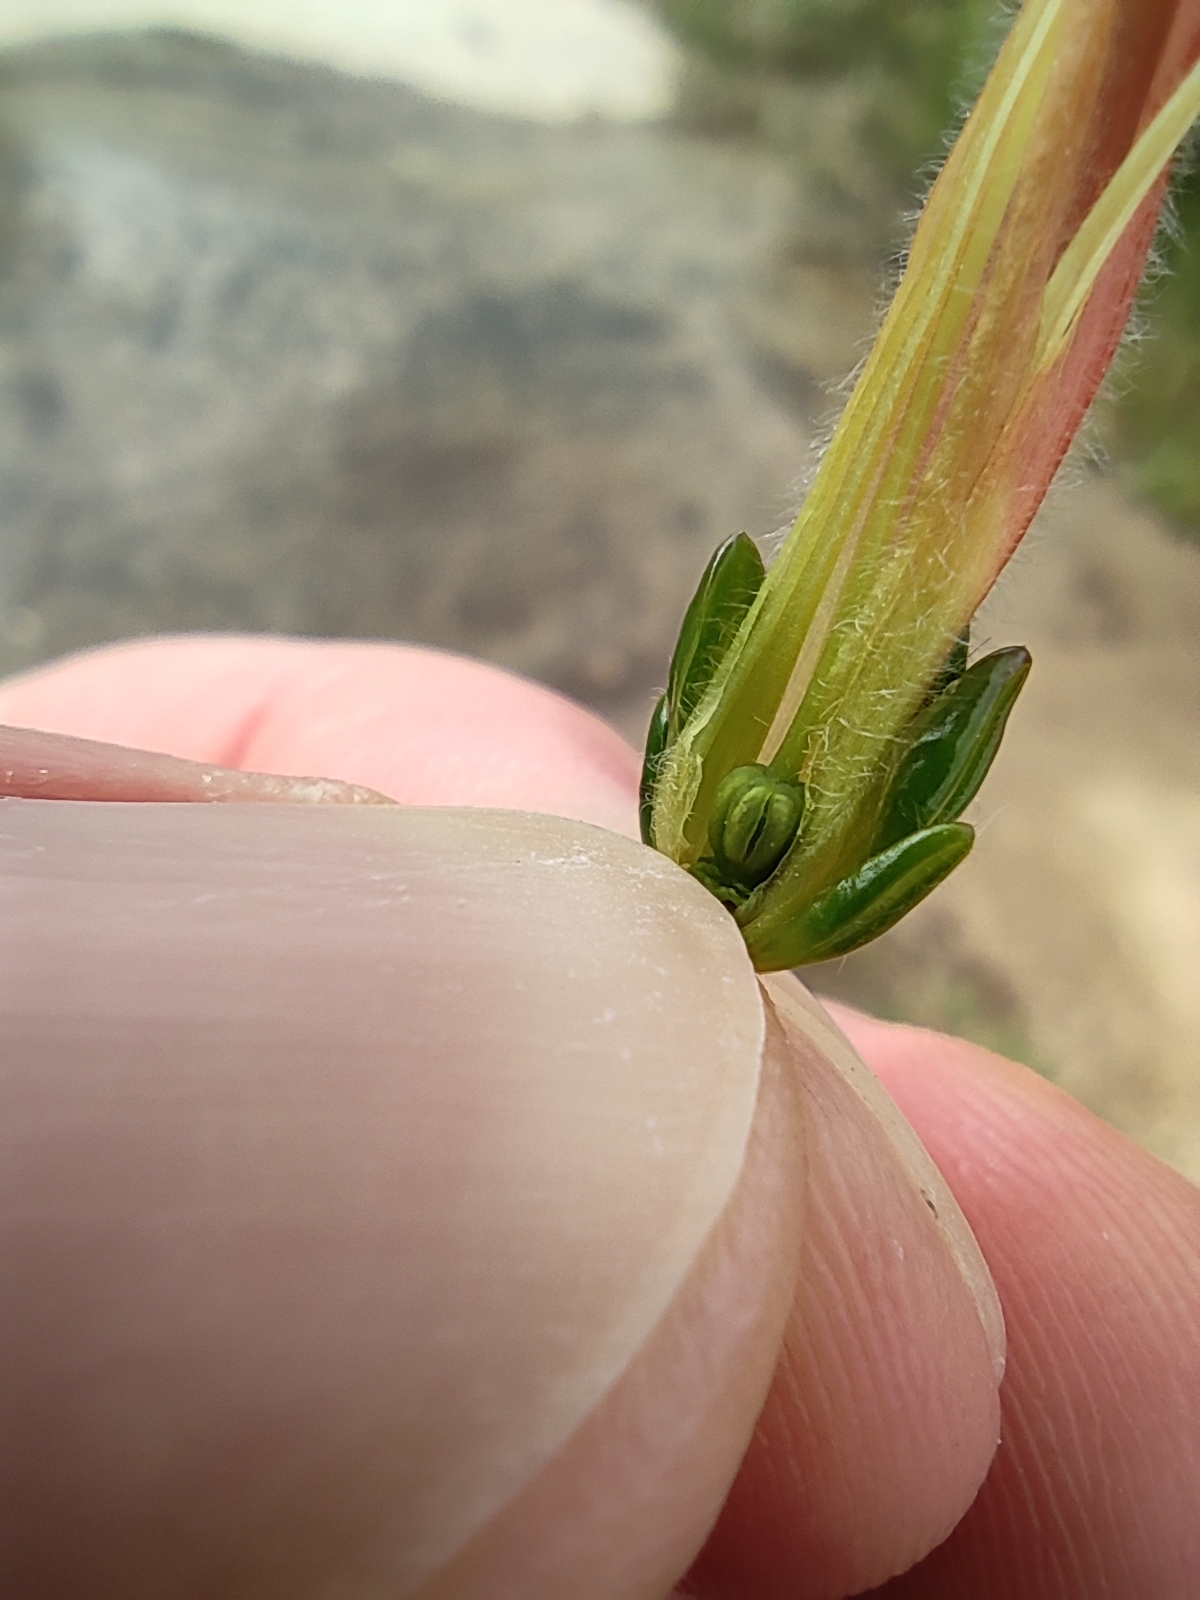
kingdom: Plantae
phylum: Tracheophyta
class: Magnoliopsida
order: Ericales
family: Ericaceae
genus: Erica
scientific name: Erica conspicua
